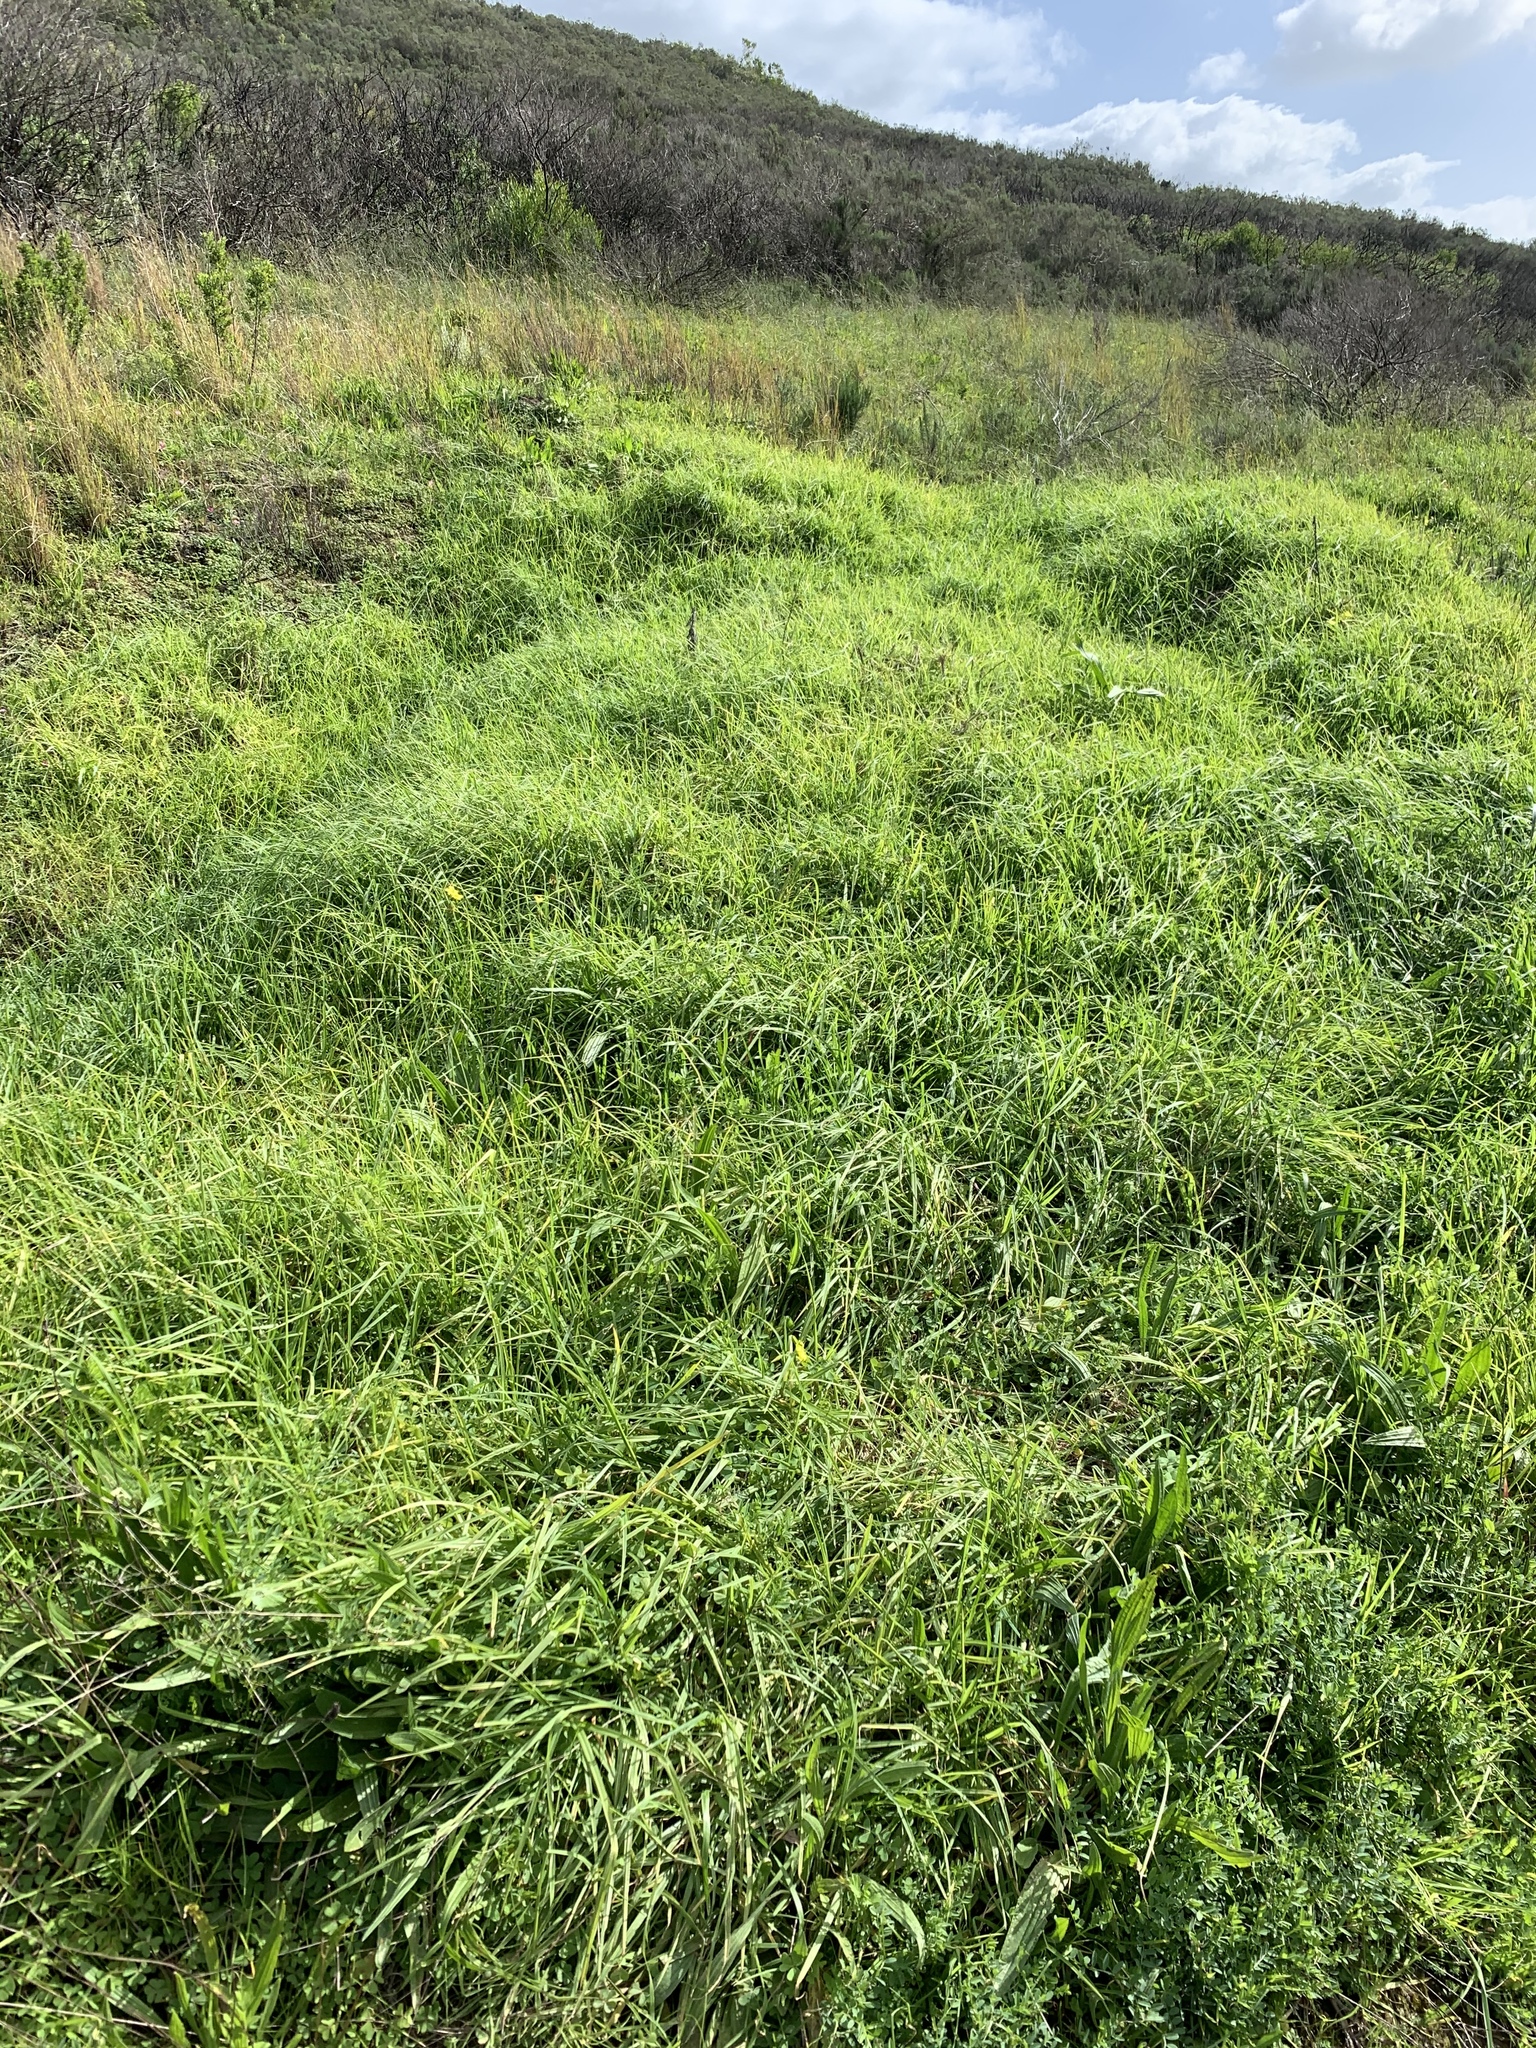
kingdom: Plantae
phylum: Tracheophyta
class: Liliopsida
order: Poales
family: Poaceae
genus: Cenchrus
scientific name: Cenchrus clandestinus
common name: Kikuyugrass
